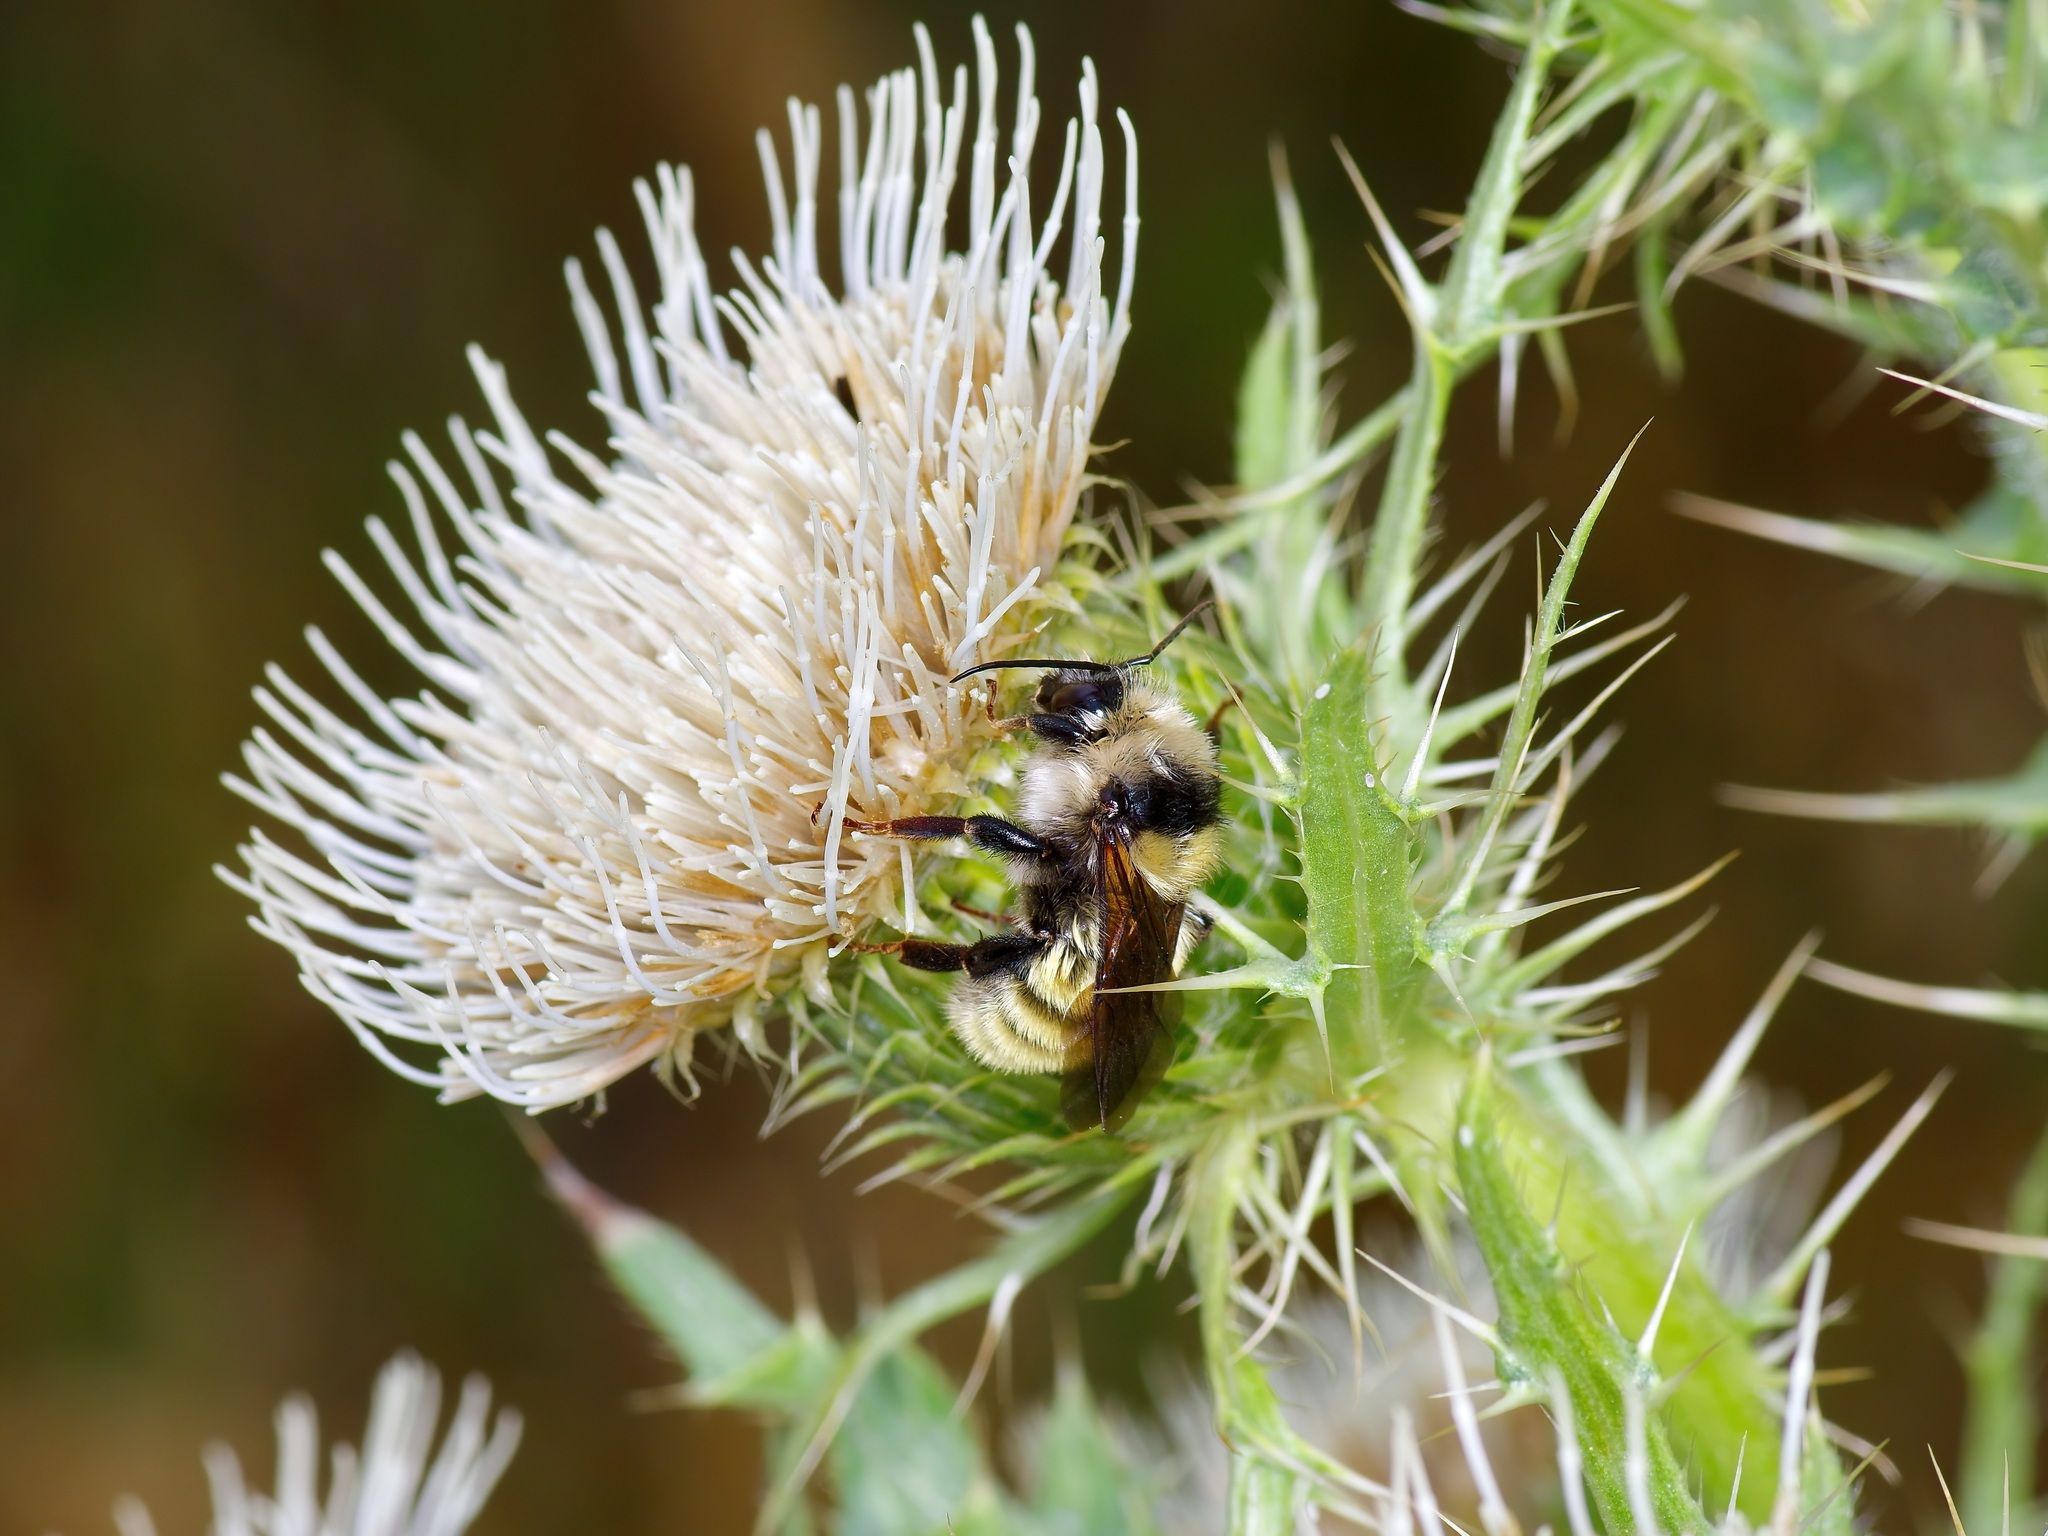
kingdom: Animalia
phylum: Arthropoda
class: Insecta
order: Hymenoptera
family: Apidae
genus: Bombus
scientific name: Bombus appositus
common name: White-shouldered bumble bee
